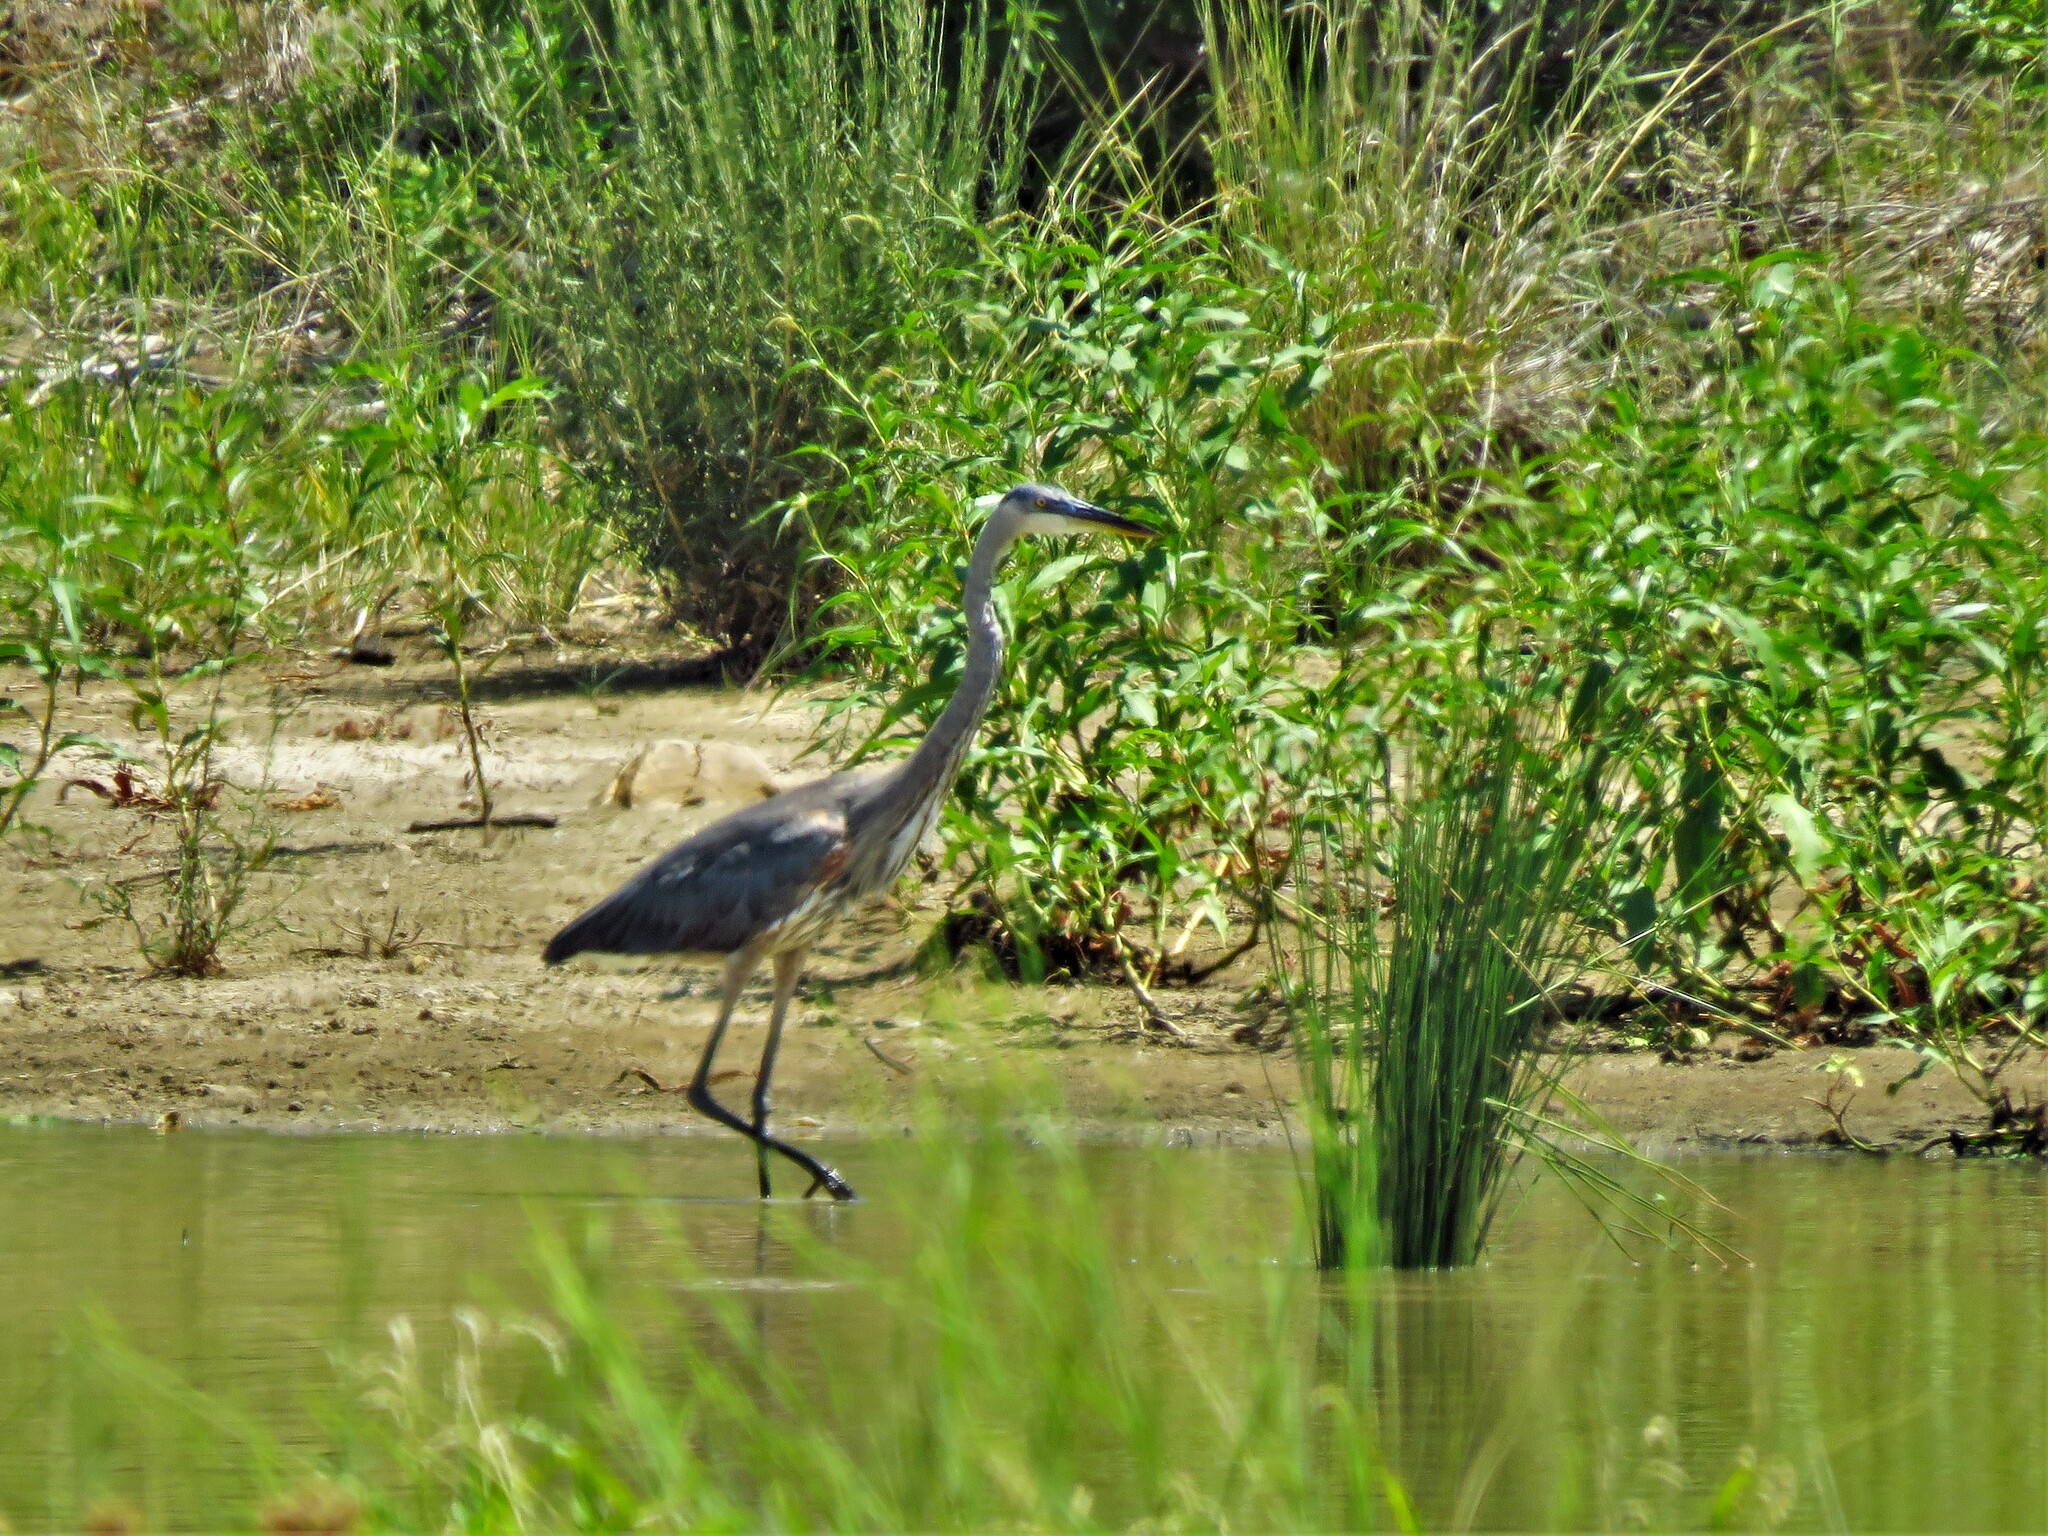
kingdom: Animalia
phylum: Chordata
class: Aves
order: Pelecaniformes
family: Ardeidae
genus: Ardea
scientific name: Ardea herodias
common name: Great blue heron
